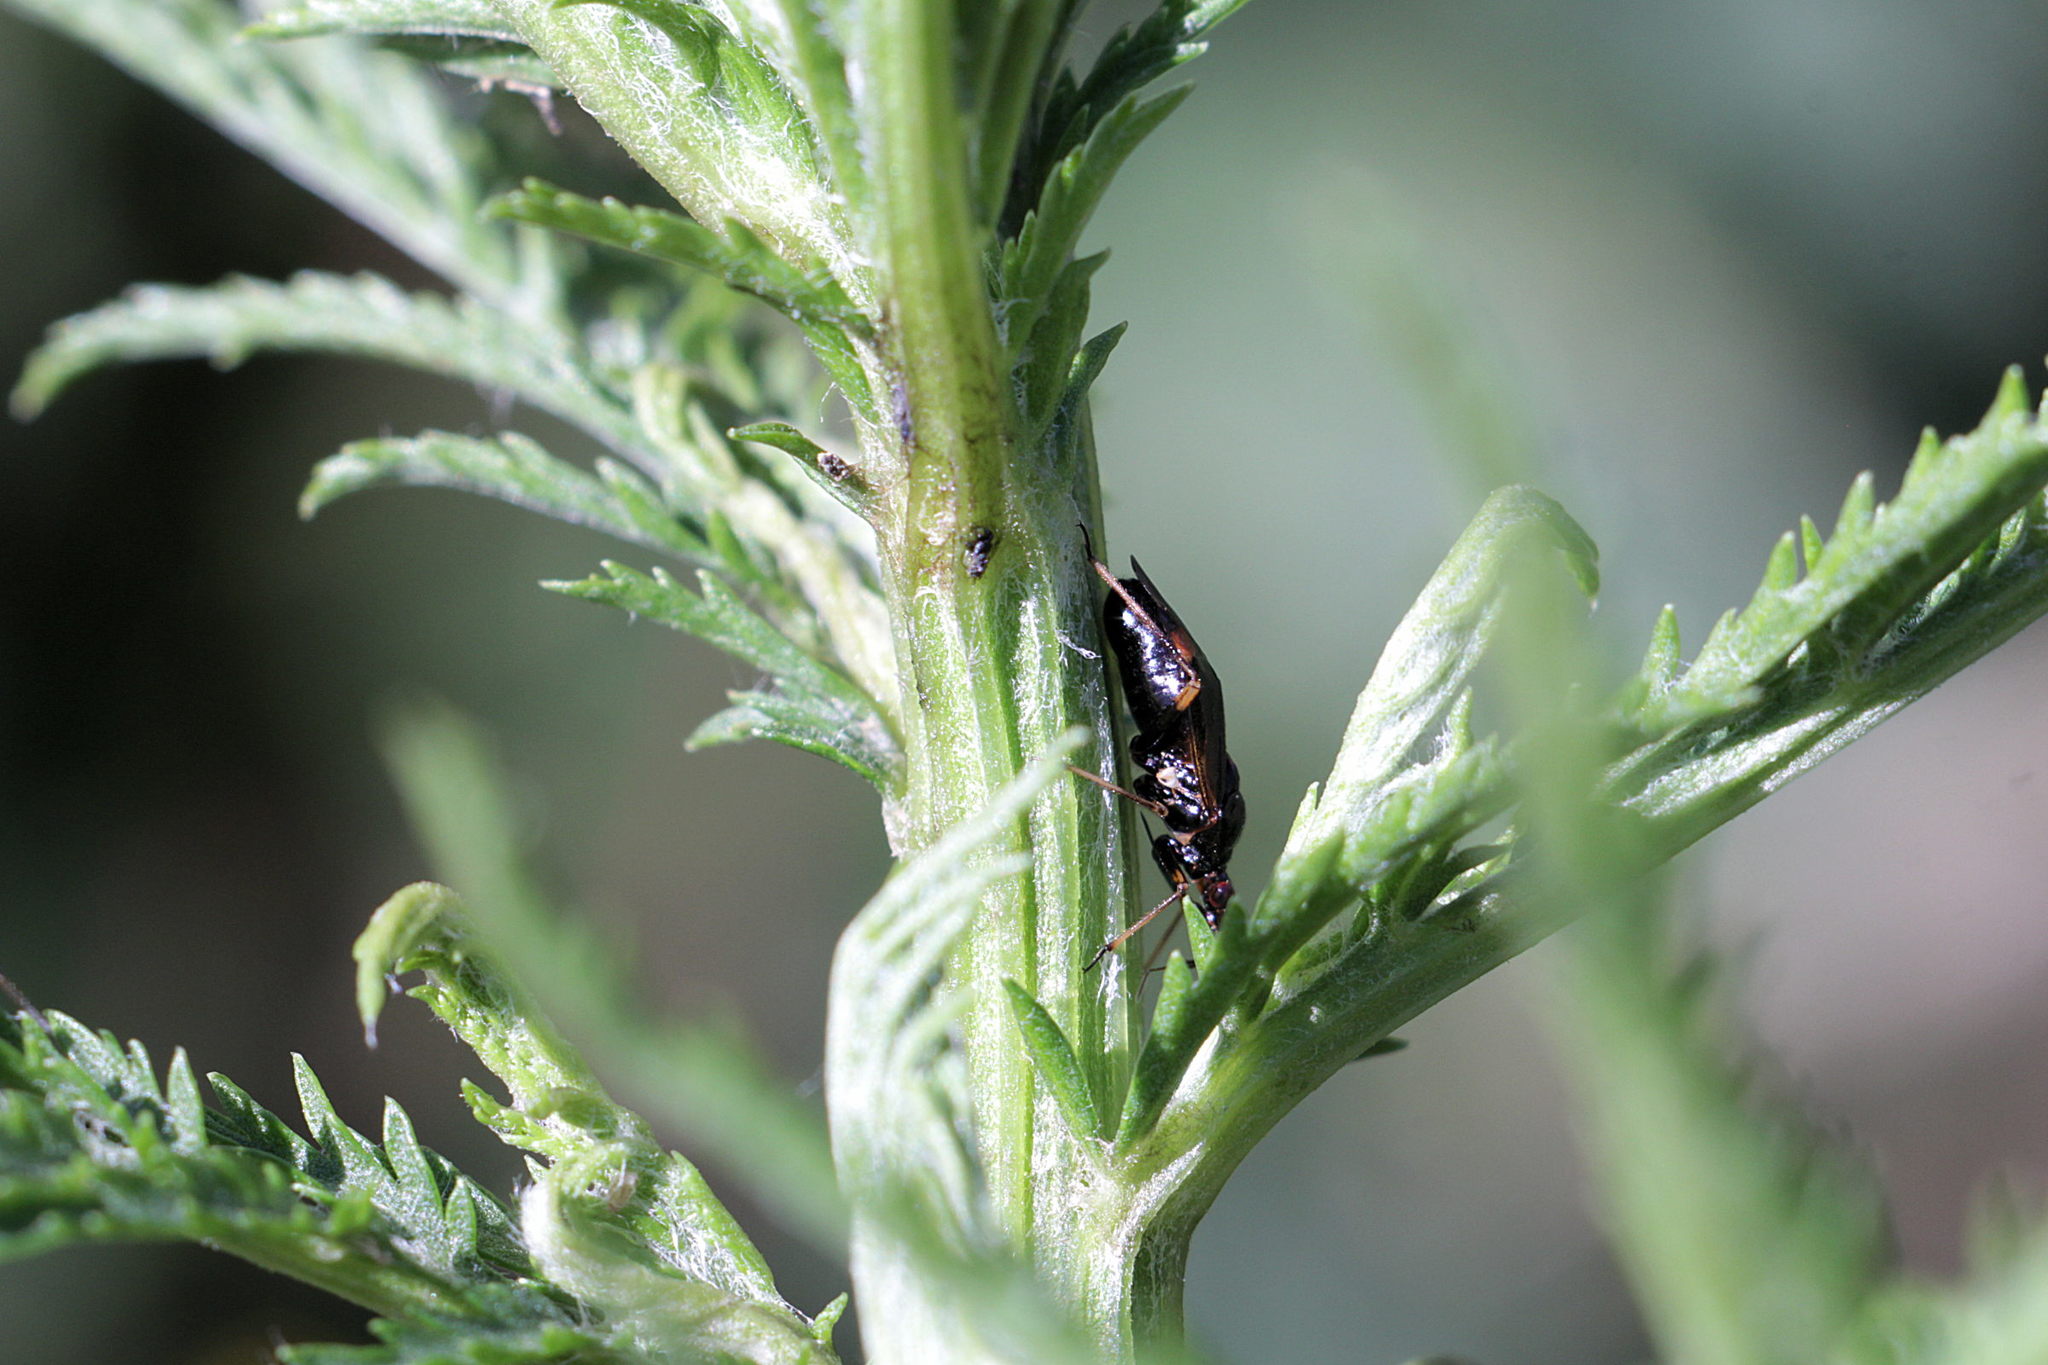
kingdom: Animalia
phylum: Arthropoda
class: Insecta
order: Hemiptera
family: Miridae
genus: Deraeocoris
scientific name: Deraeocoris ruber
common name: Plant bug
